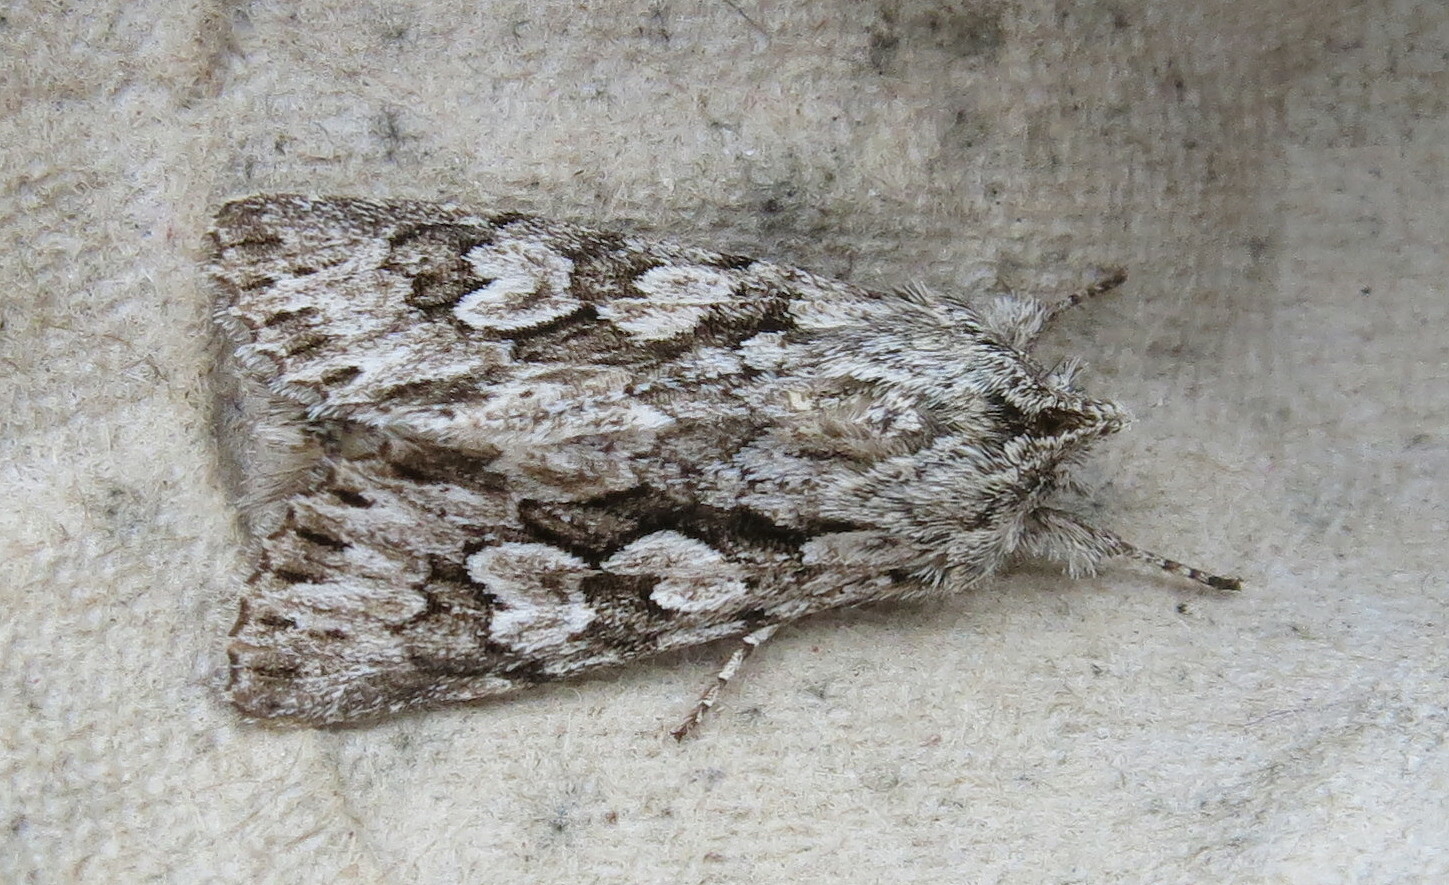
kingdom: Animalia
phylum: Arthropoda
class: Insecta
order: Lepidoptera
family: Noctuidae
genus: Xylocampa
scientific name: Xylocampa areola
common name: Early grey
